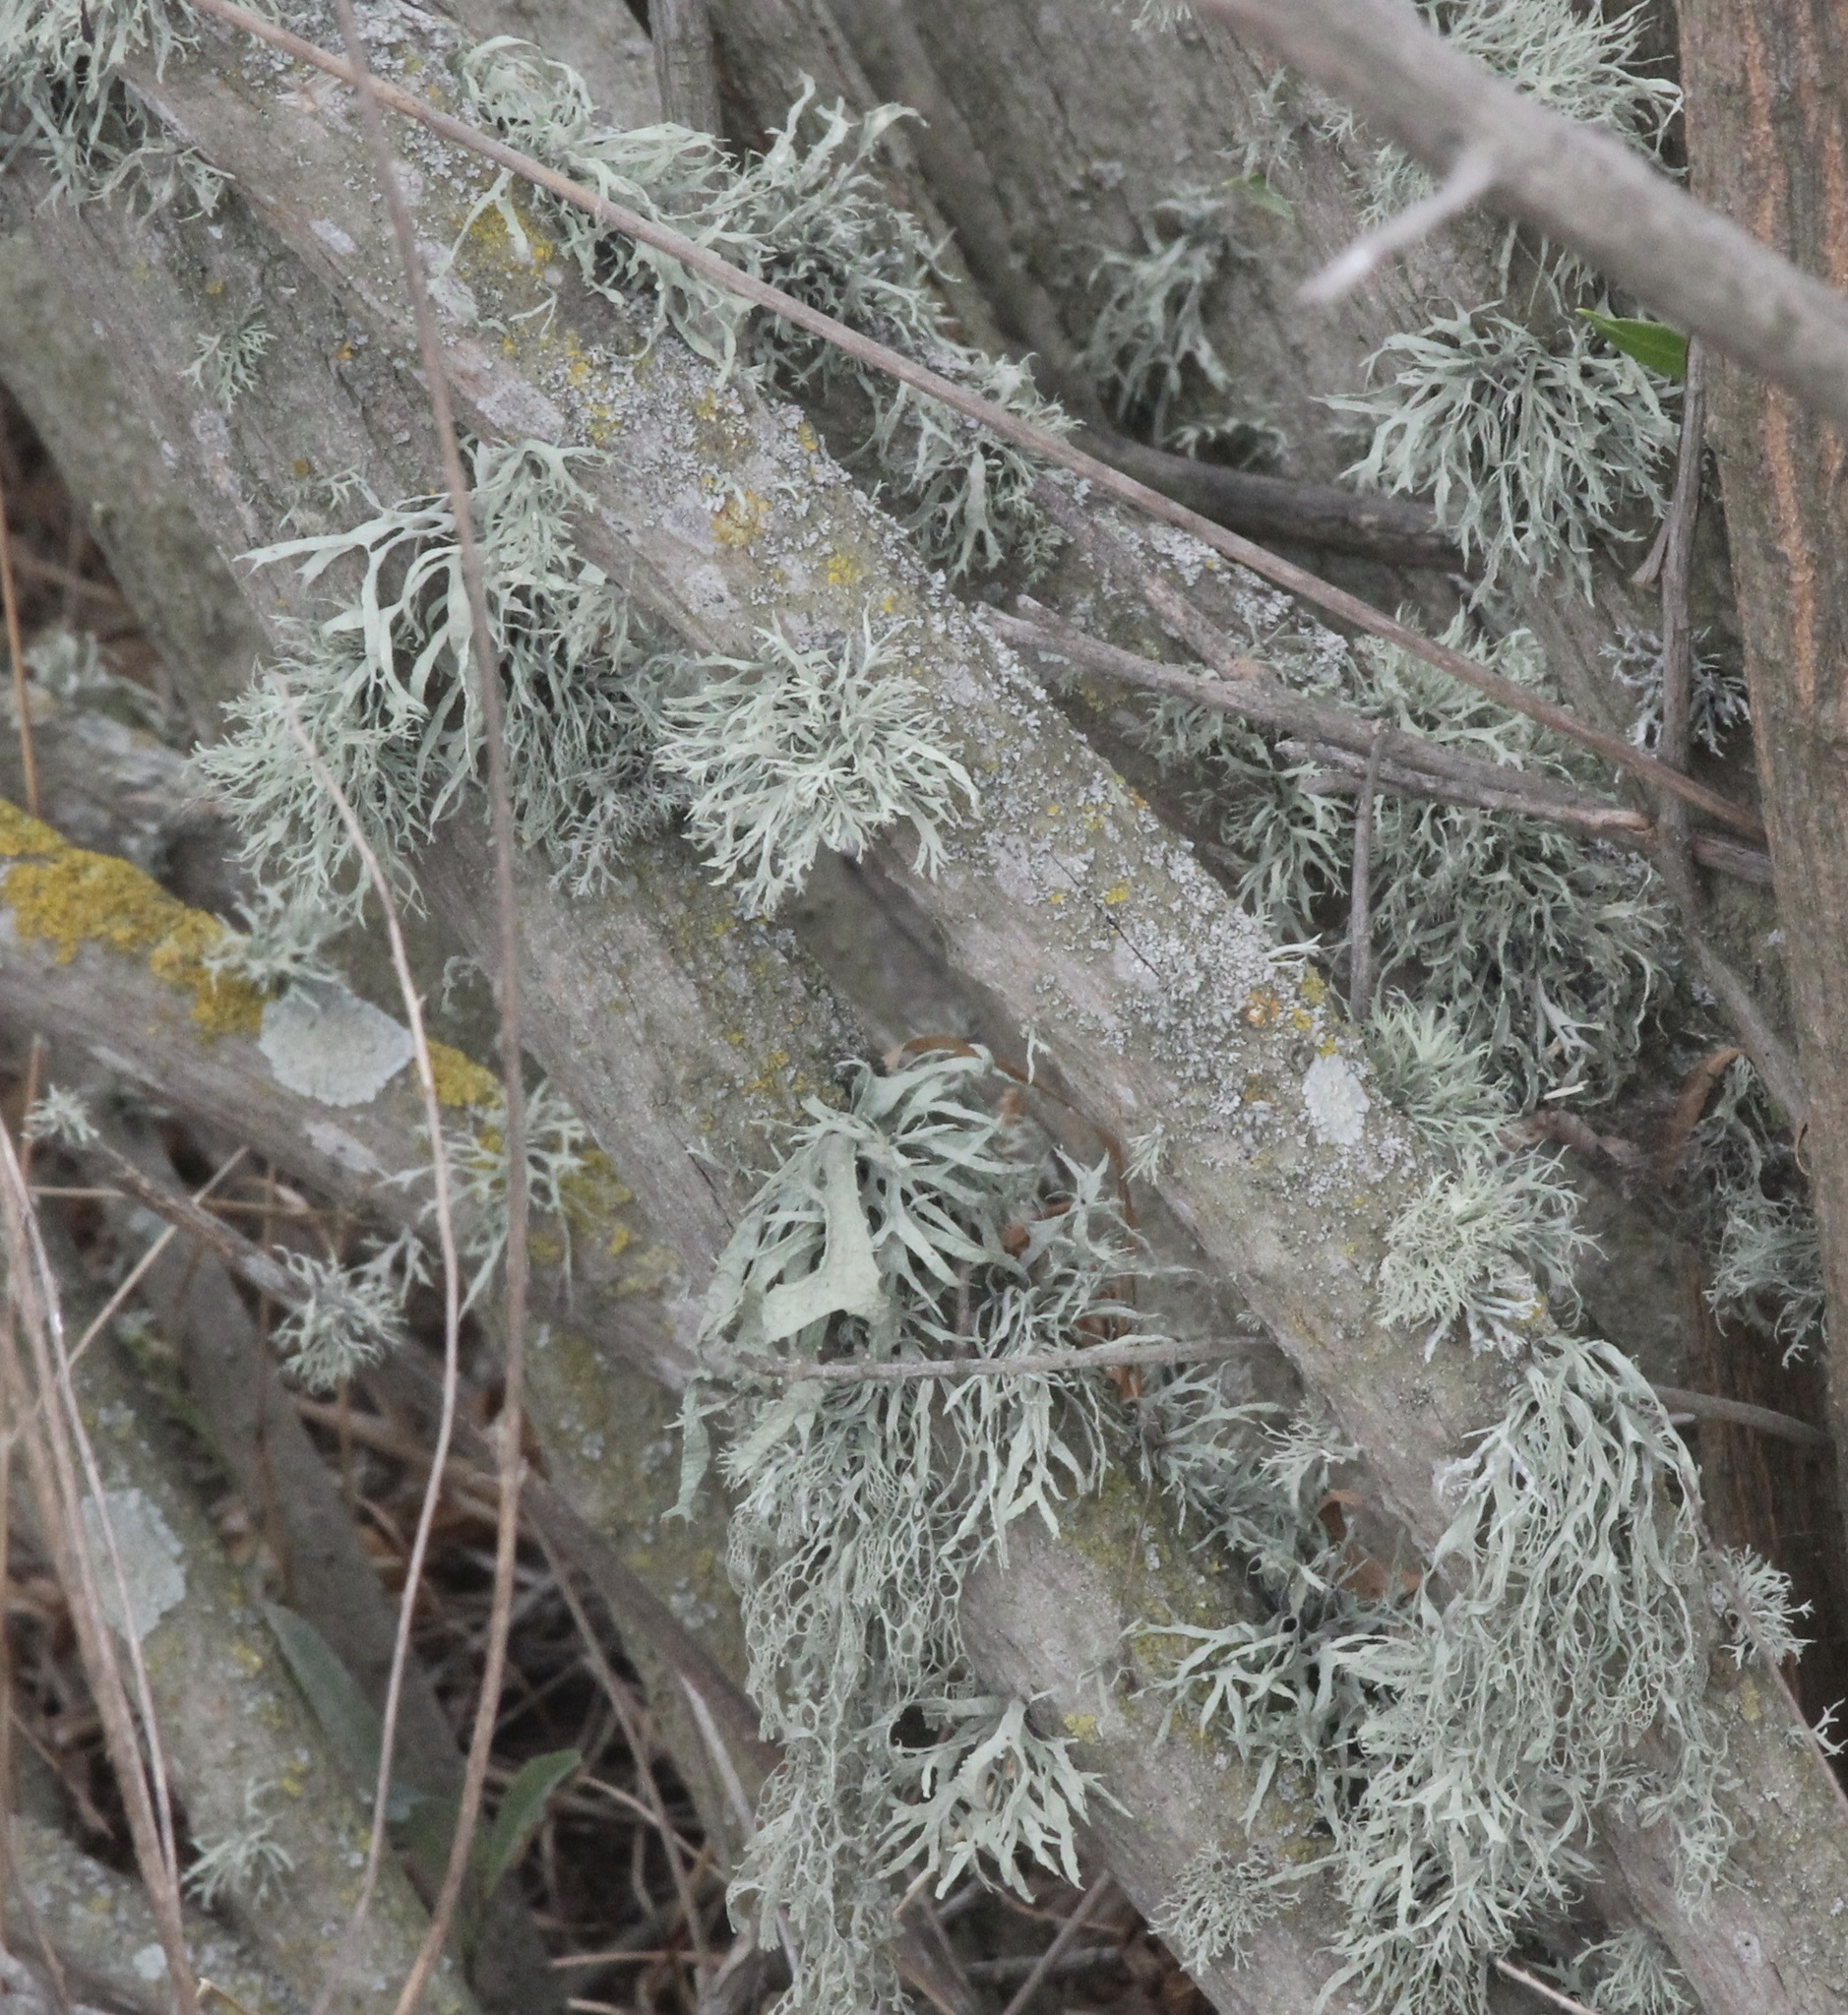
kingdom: Fungi
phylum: Ascomycota
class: Lecanoromycetes
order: Lecanorales
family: Ramalinaceae
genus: Ramalina
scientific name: Ramalina farinacea
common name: Farinose cartilage lichen
